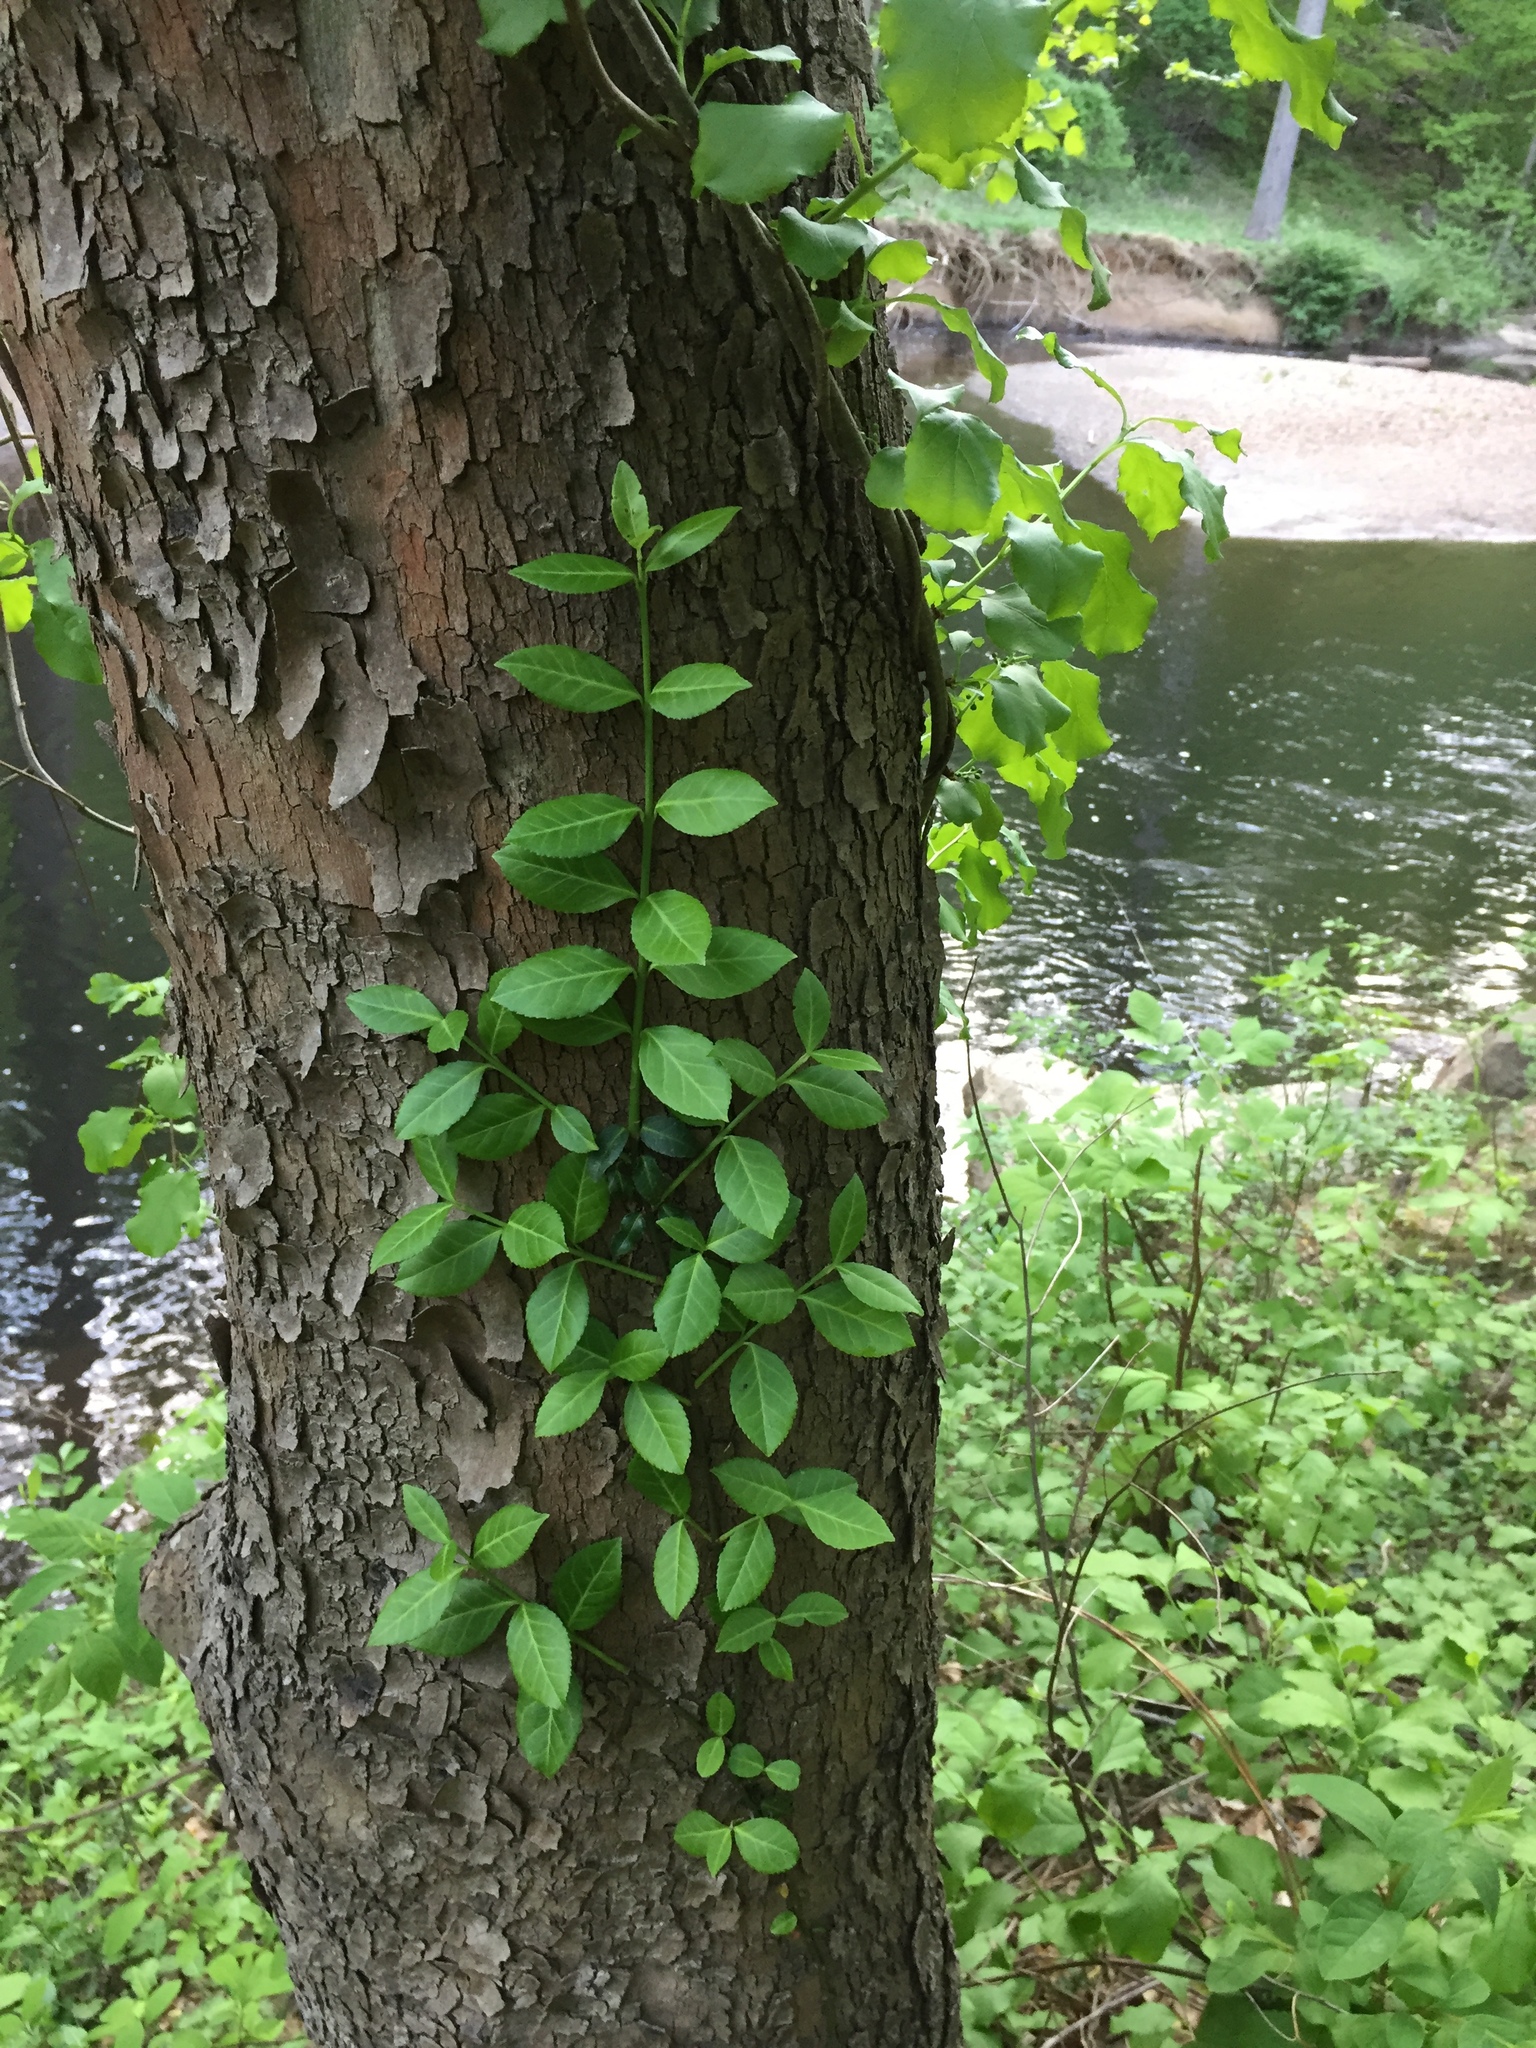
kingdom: Plantae
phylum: Tracheophyta
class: Magnoliopsida
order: Celastrales
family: Celastraceae
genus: Euonymus
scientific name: Euonymus fortunei
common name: Climbing euonymus
